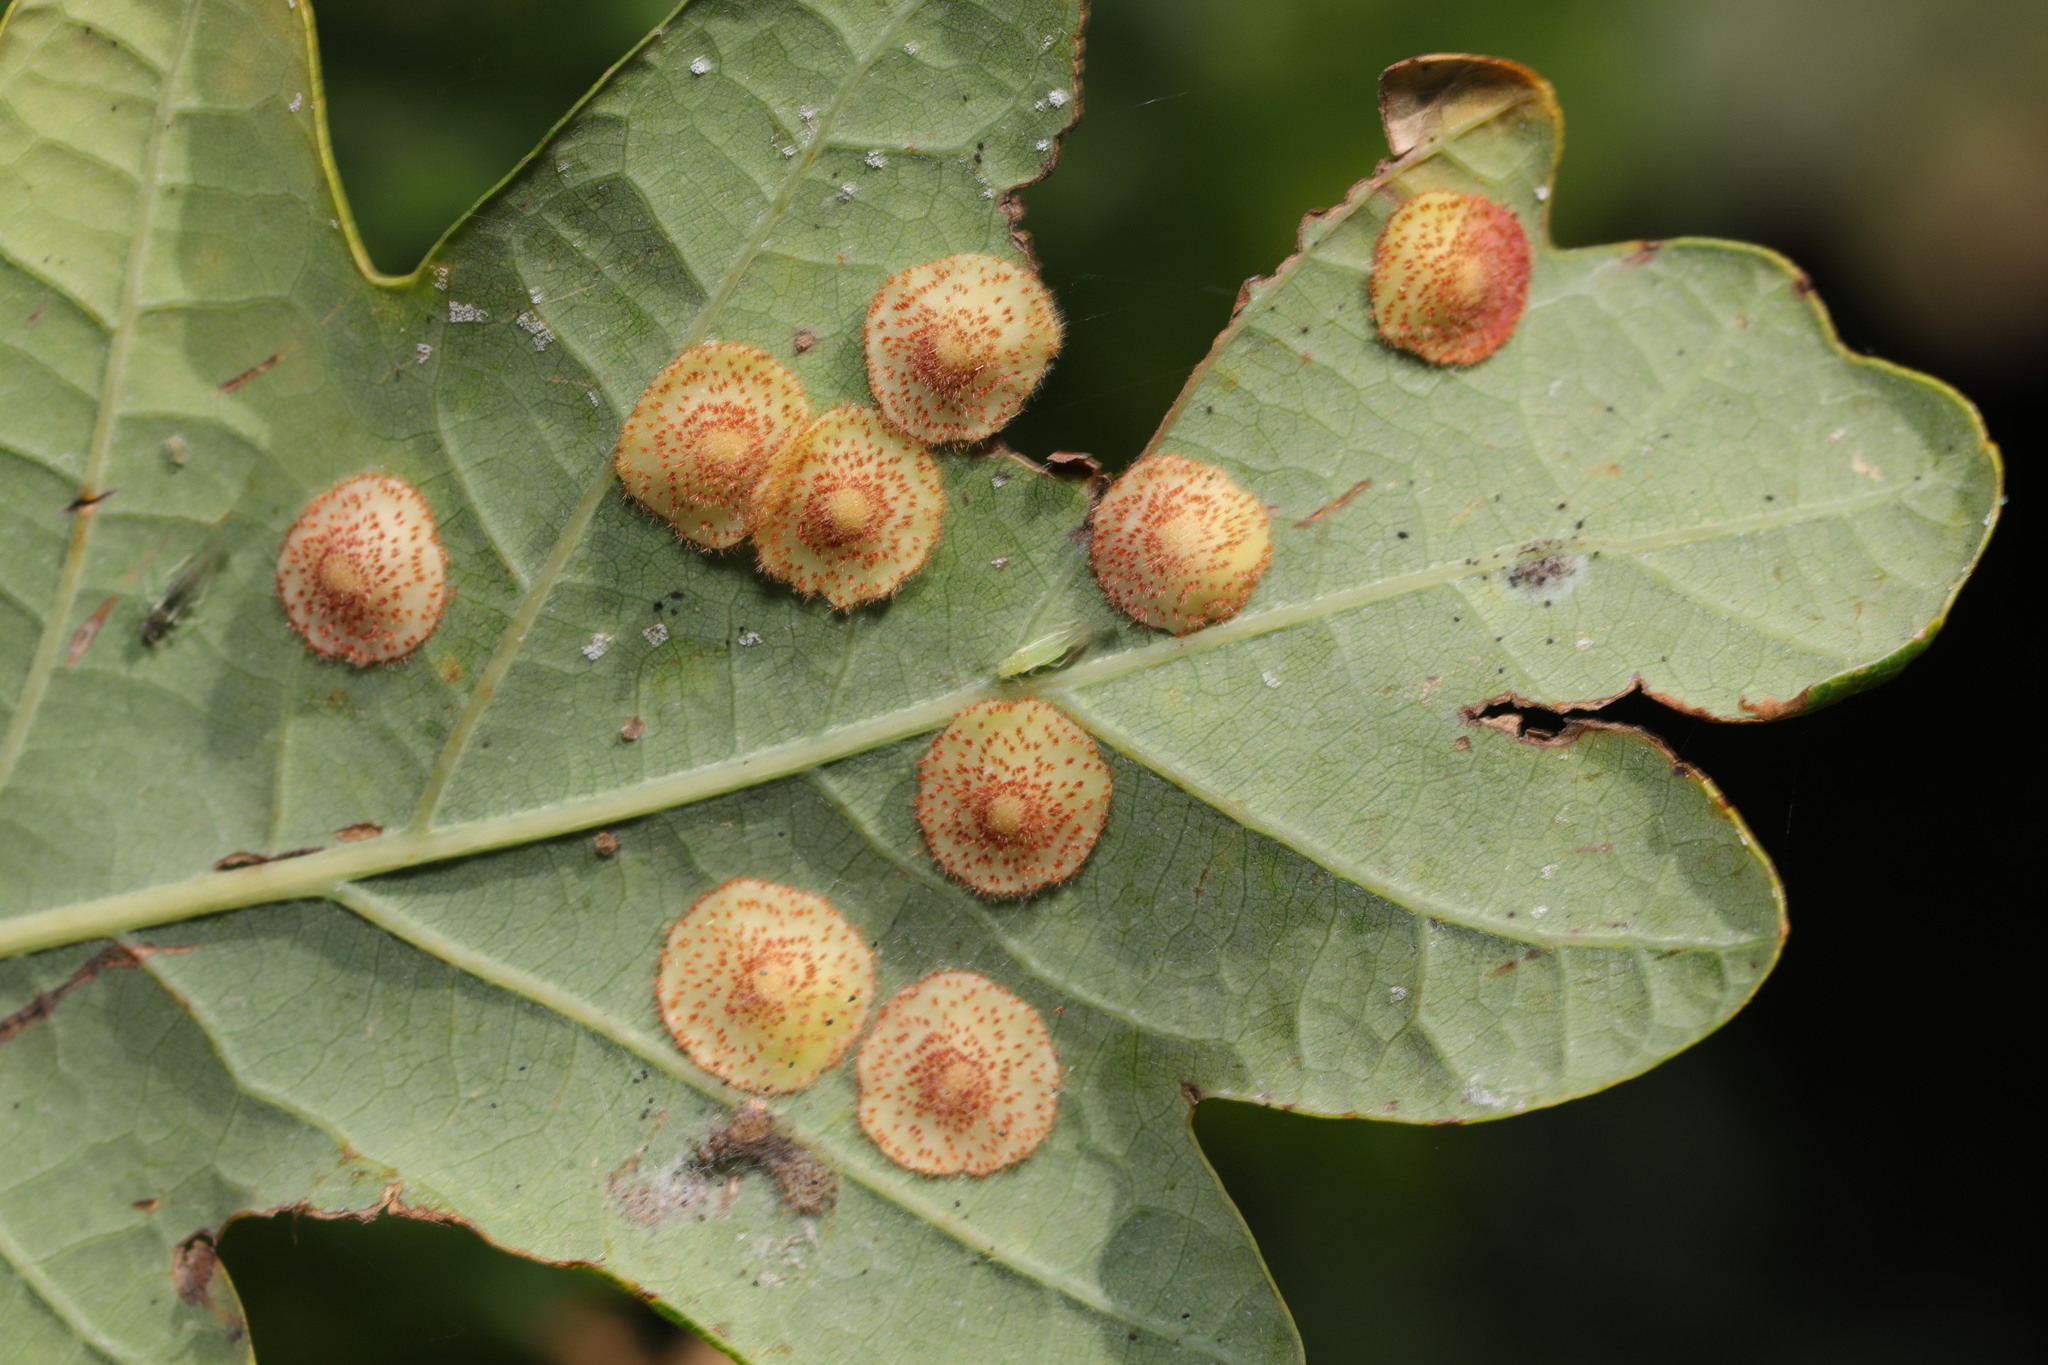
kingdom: Animalia
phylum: Arthropoda
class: Insecta
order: Hymenoptera
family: Cynipidae
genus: Neuroterus
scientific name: Neuroterus quercusbaccarum
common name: Common spangle gall
